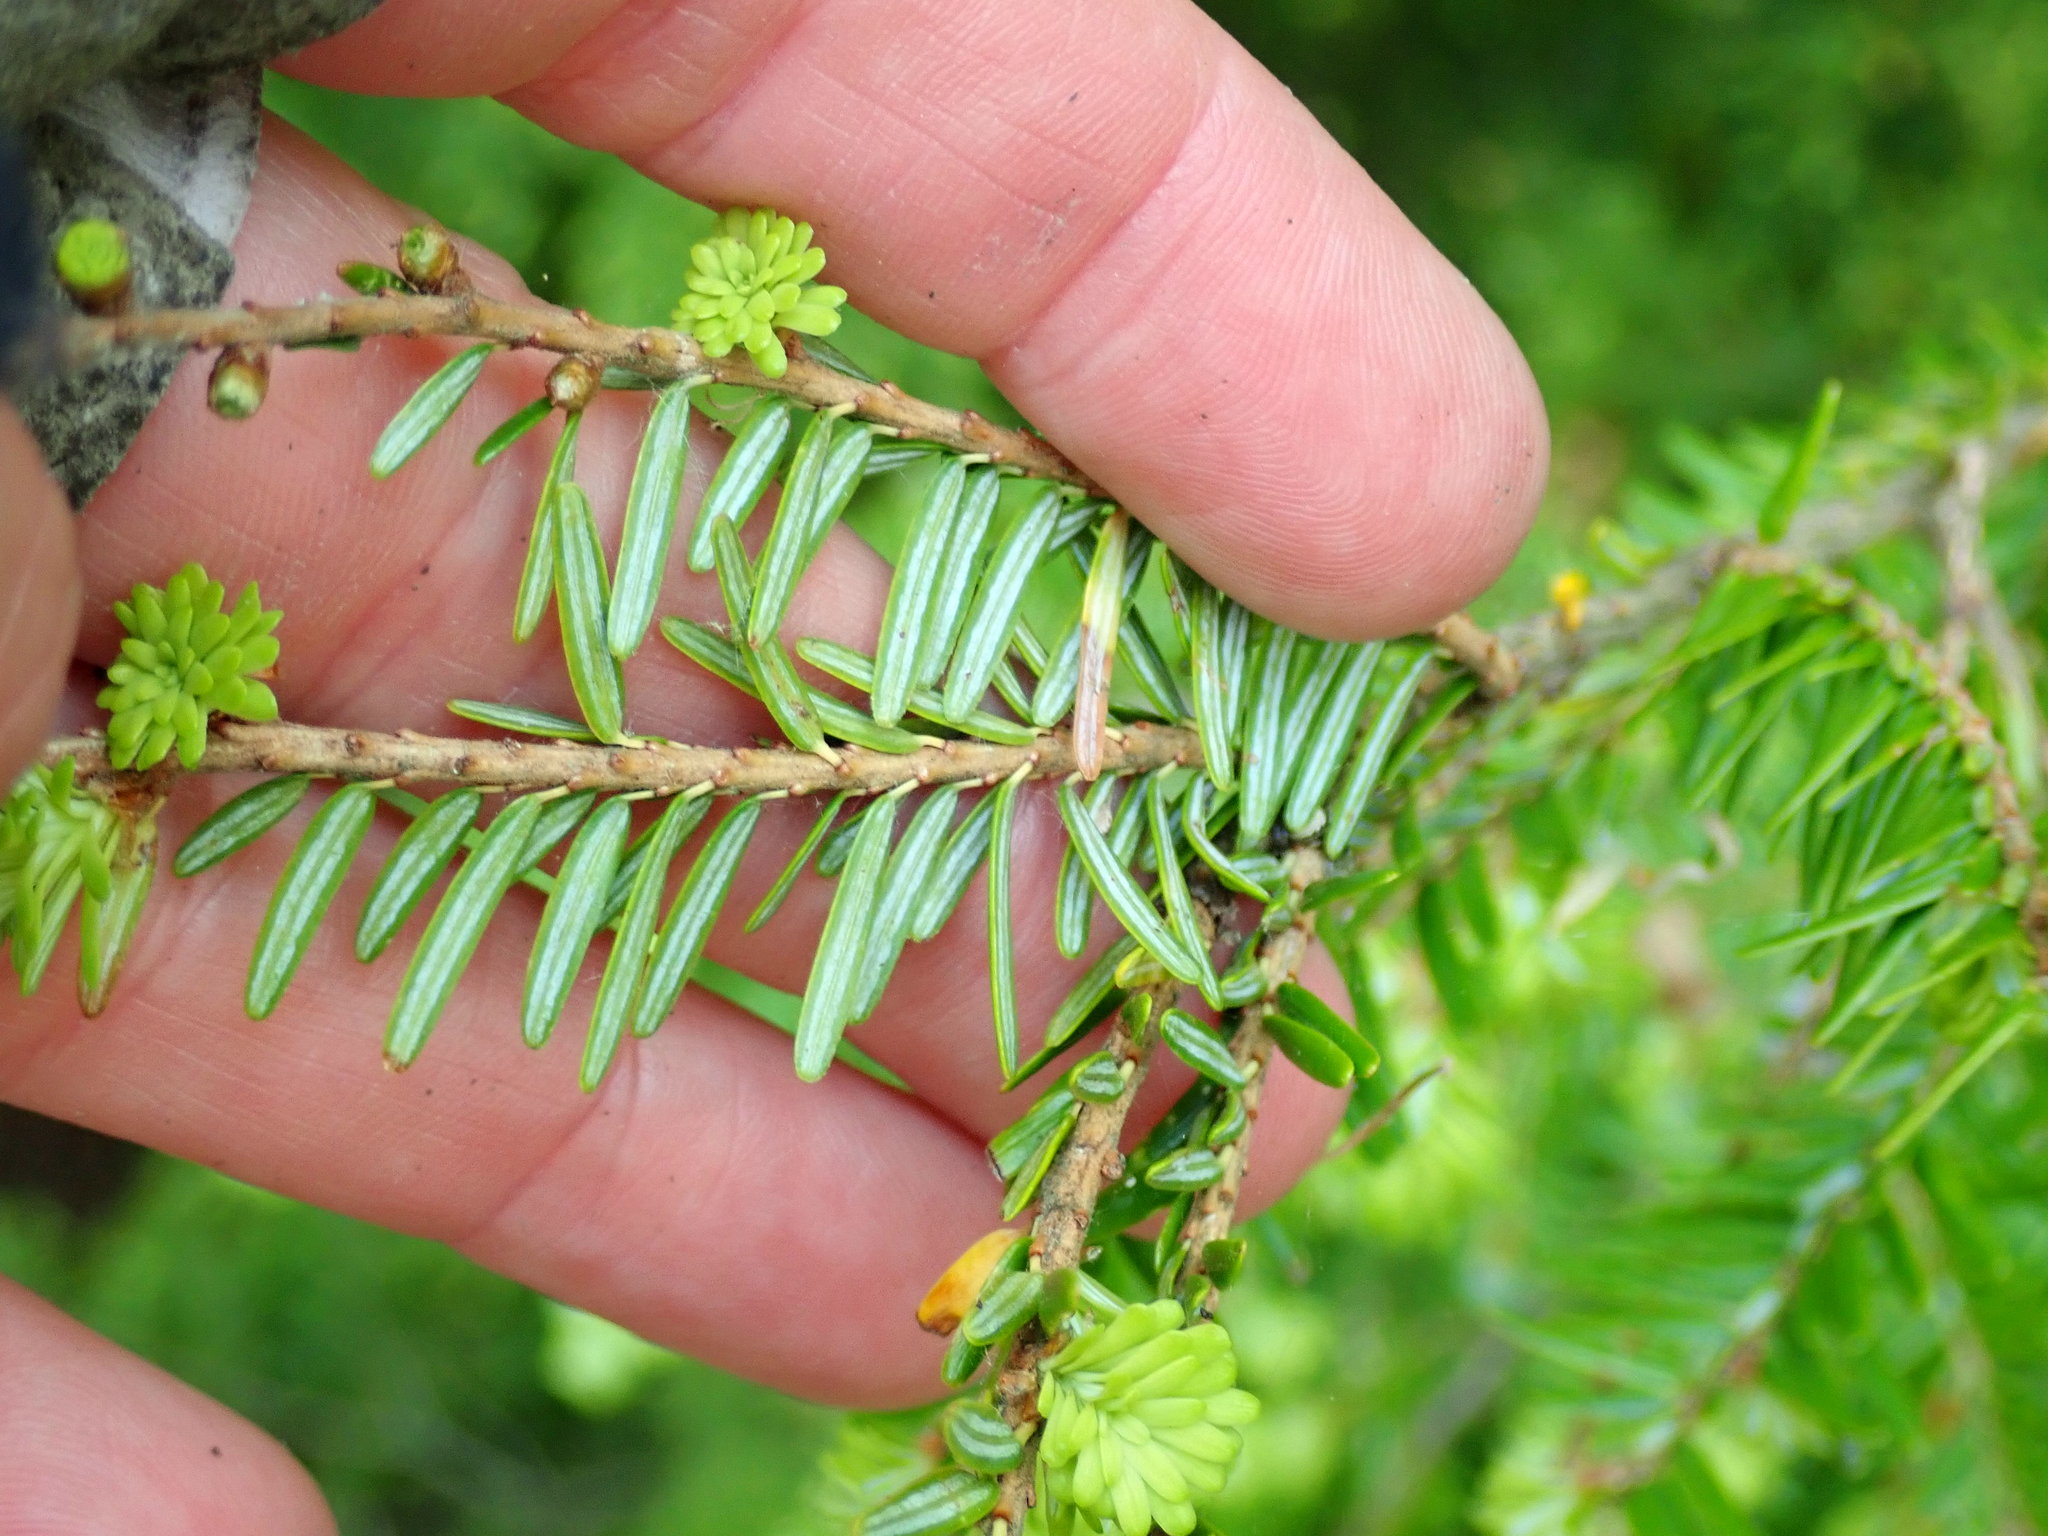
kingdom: Plantae
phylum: Tracheophyta
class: Pinopsida
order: Pinales
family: Pinaceae
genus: Tsuga
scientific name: Tsuga canadensis
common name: Eastern hemlock
